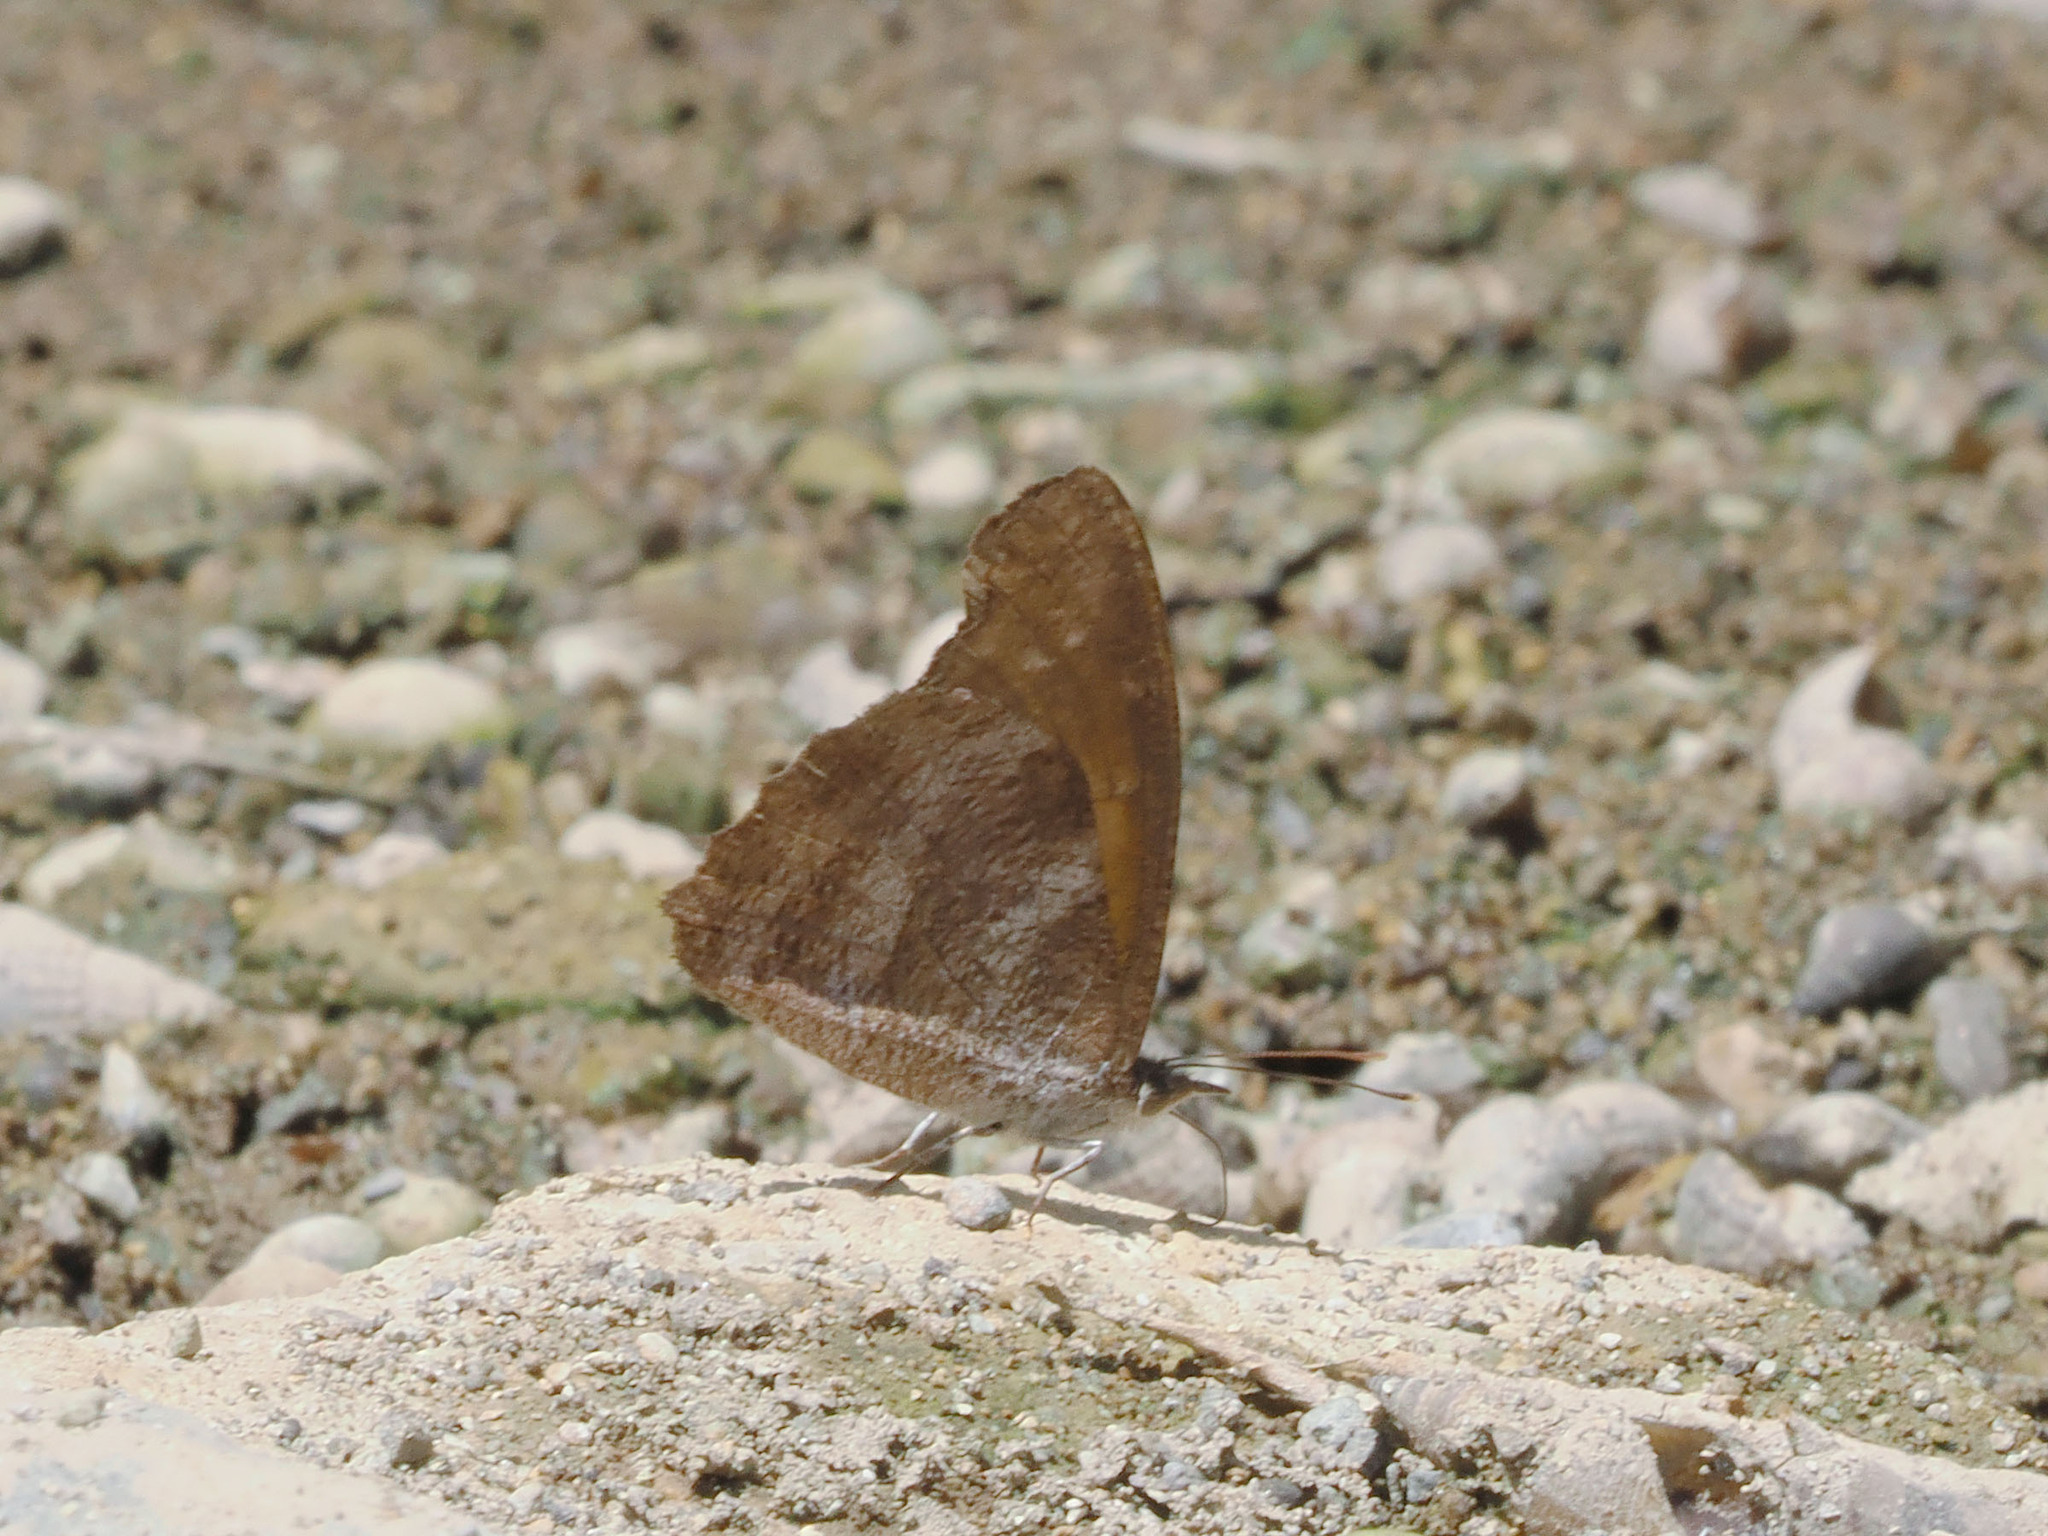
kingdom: Animalia
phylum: Arthropoda
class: Insecta
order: Lepidoptera
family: Nymphalidae
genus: Libythea
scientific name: Libythea geoffroy
